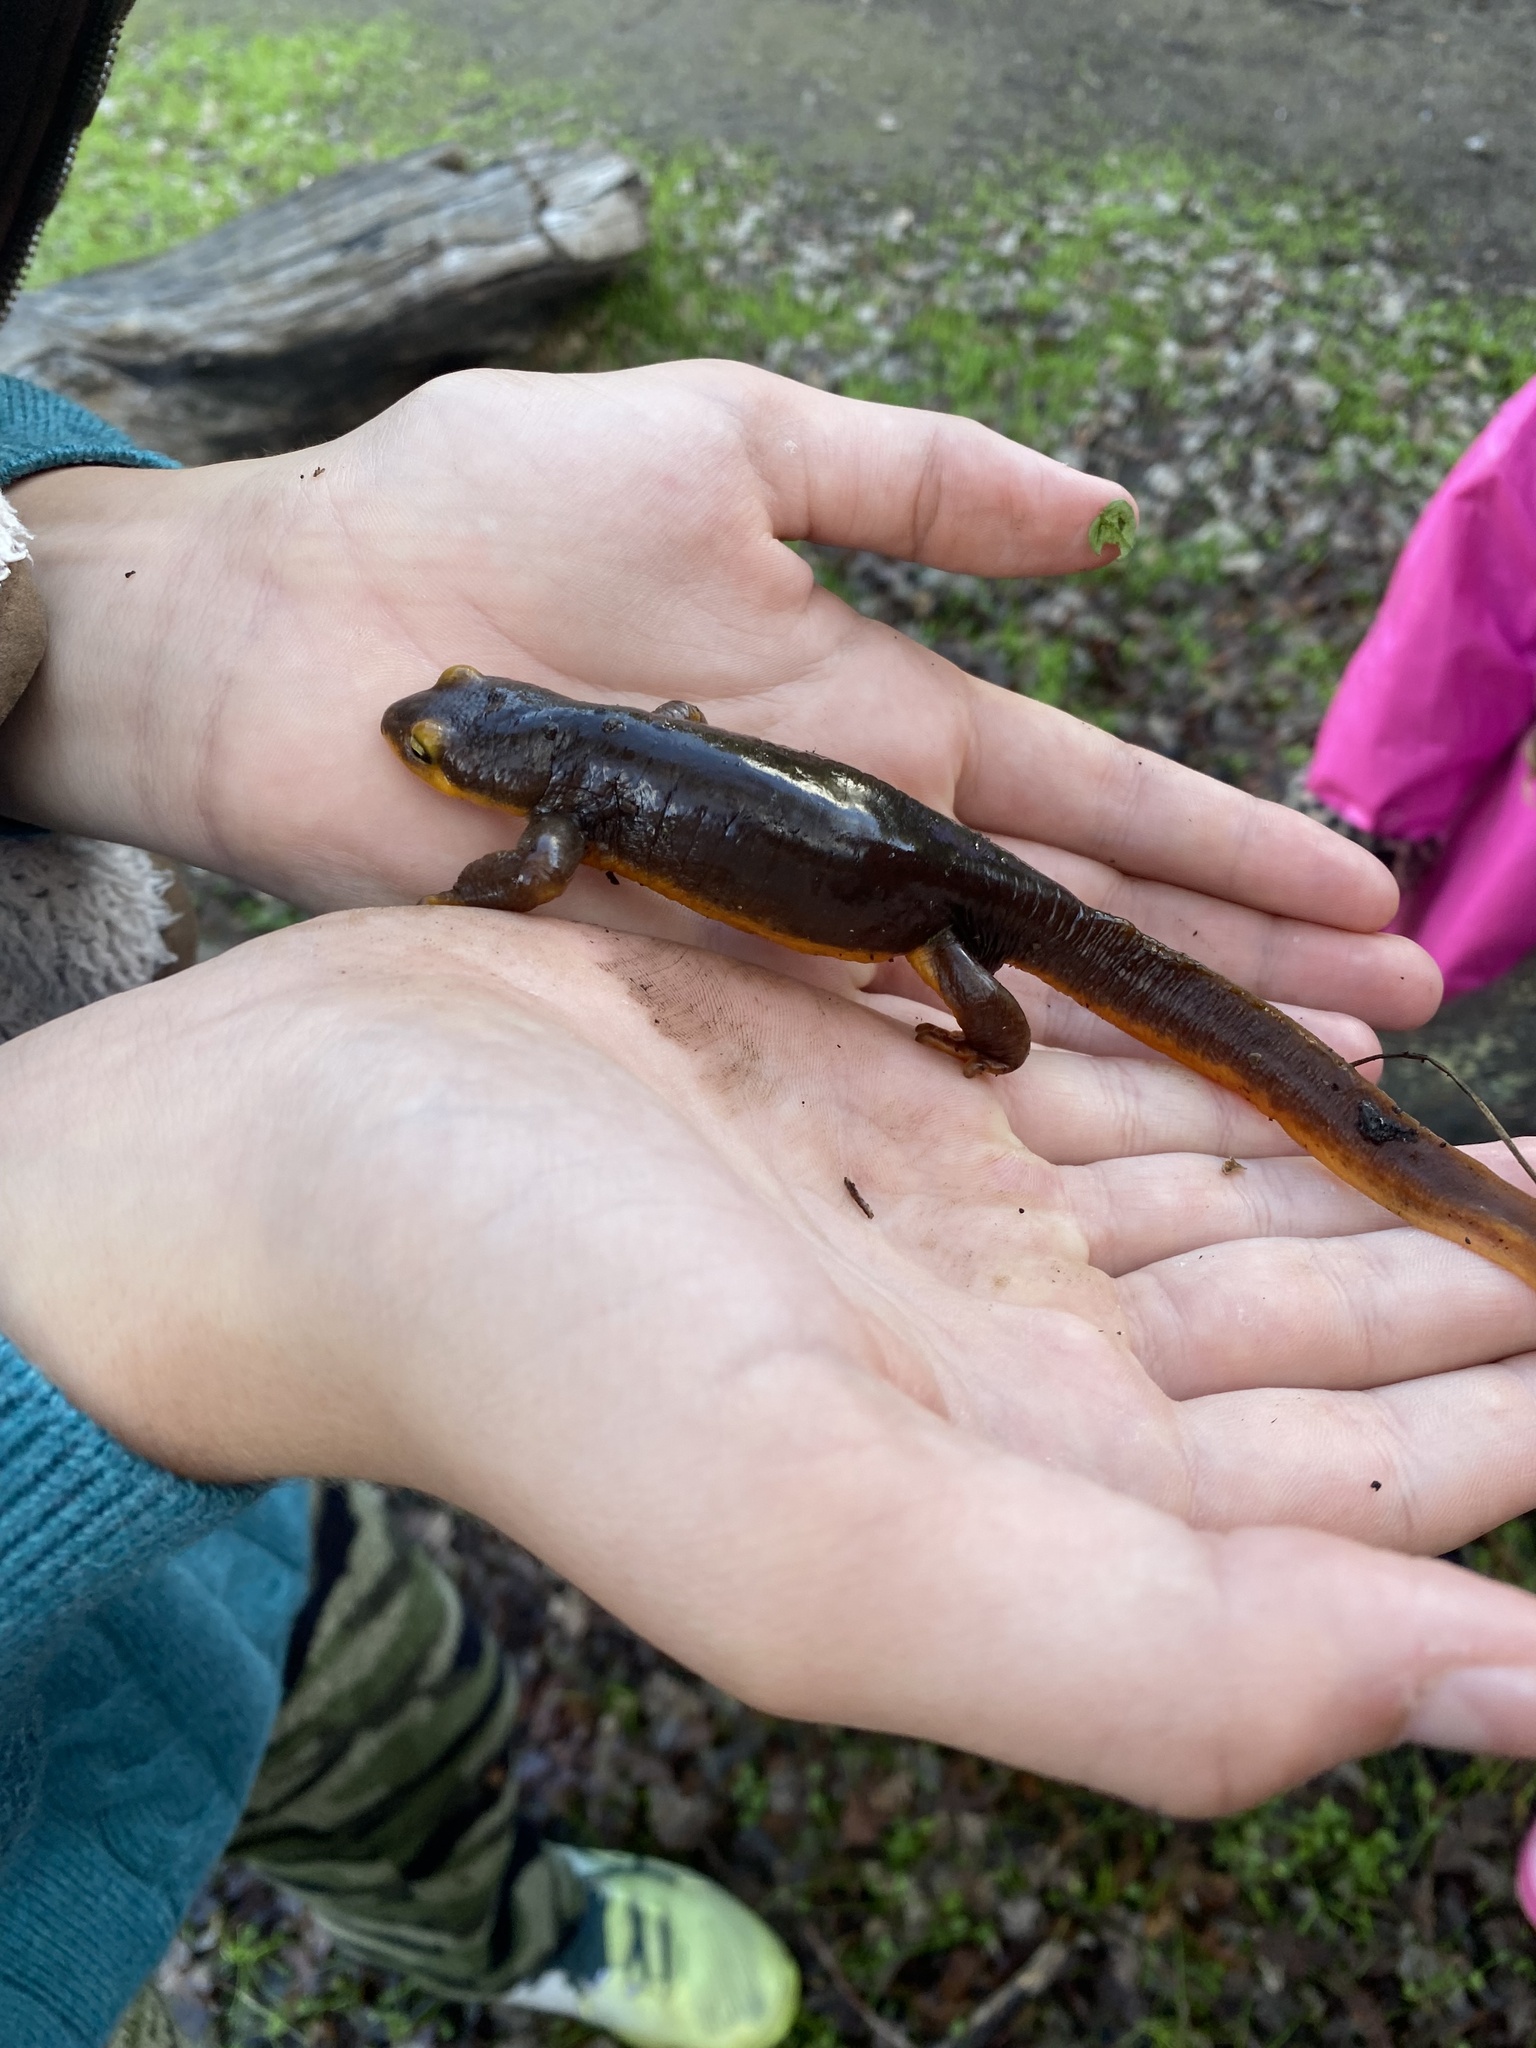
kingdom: Animalia
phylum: Chordata
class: Amphibia
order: Caudata
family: Salamandridae
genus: Taricha
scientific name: Taricha torosa
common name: California newt
